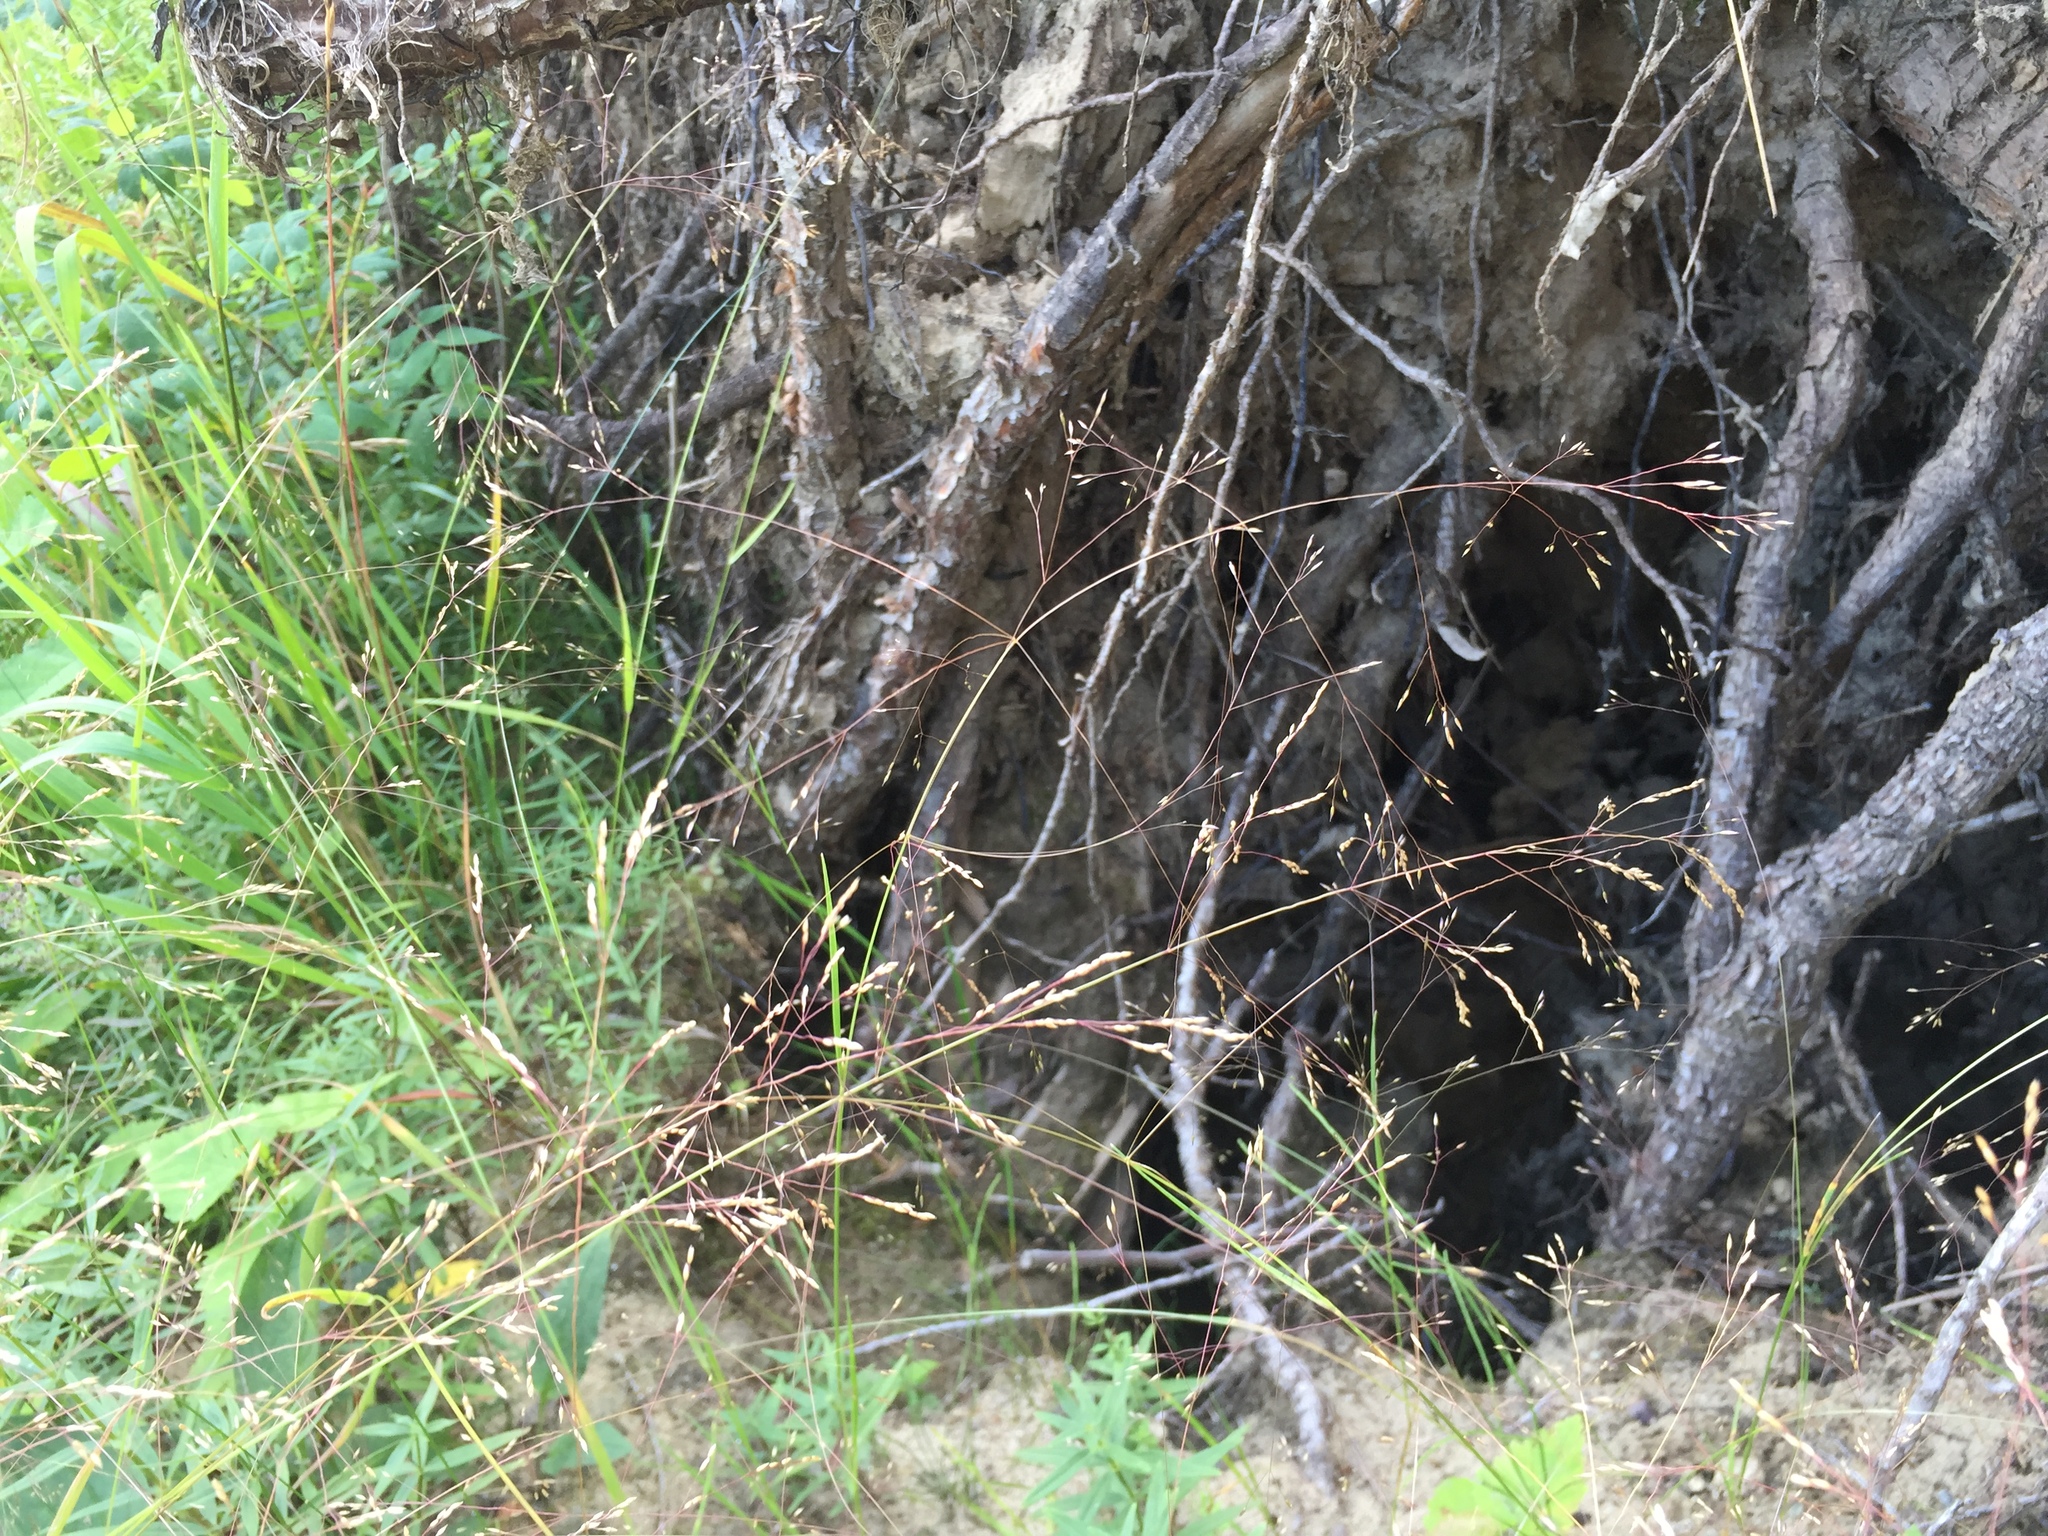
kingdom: Plantae
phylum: Tracheophyta
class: Liliopsida
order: Poales
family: Poaceae
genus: Agrostis
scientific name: Agrostis scabra
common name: Rough bent
